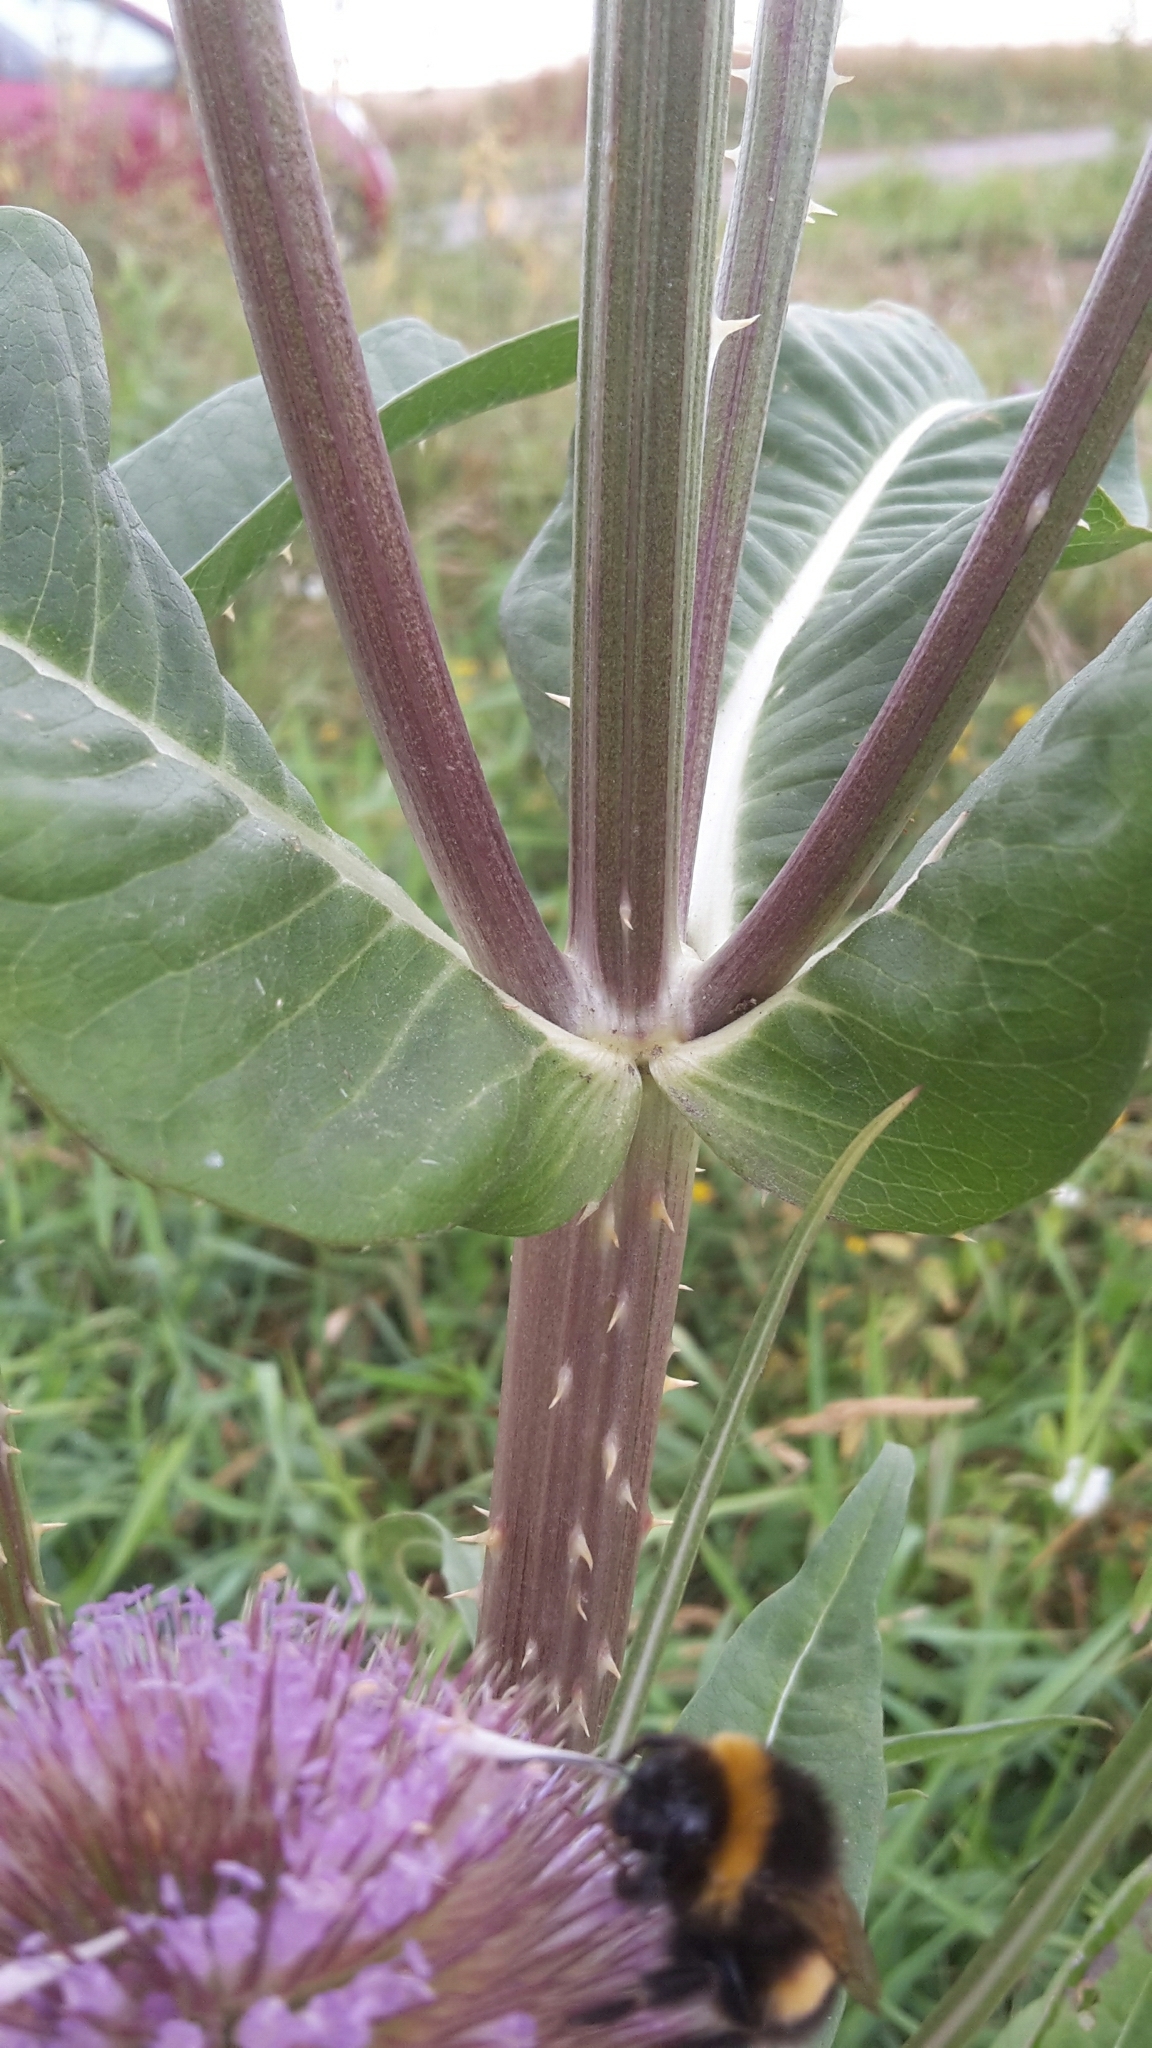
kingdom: Plantae
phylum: Tracheophyta
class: Magnoliopsida
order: Dipsacales
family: Caprifoliaceae
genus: Dipsacus
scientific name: Dipsacus fullonum
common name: Teasel
